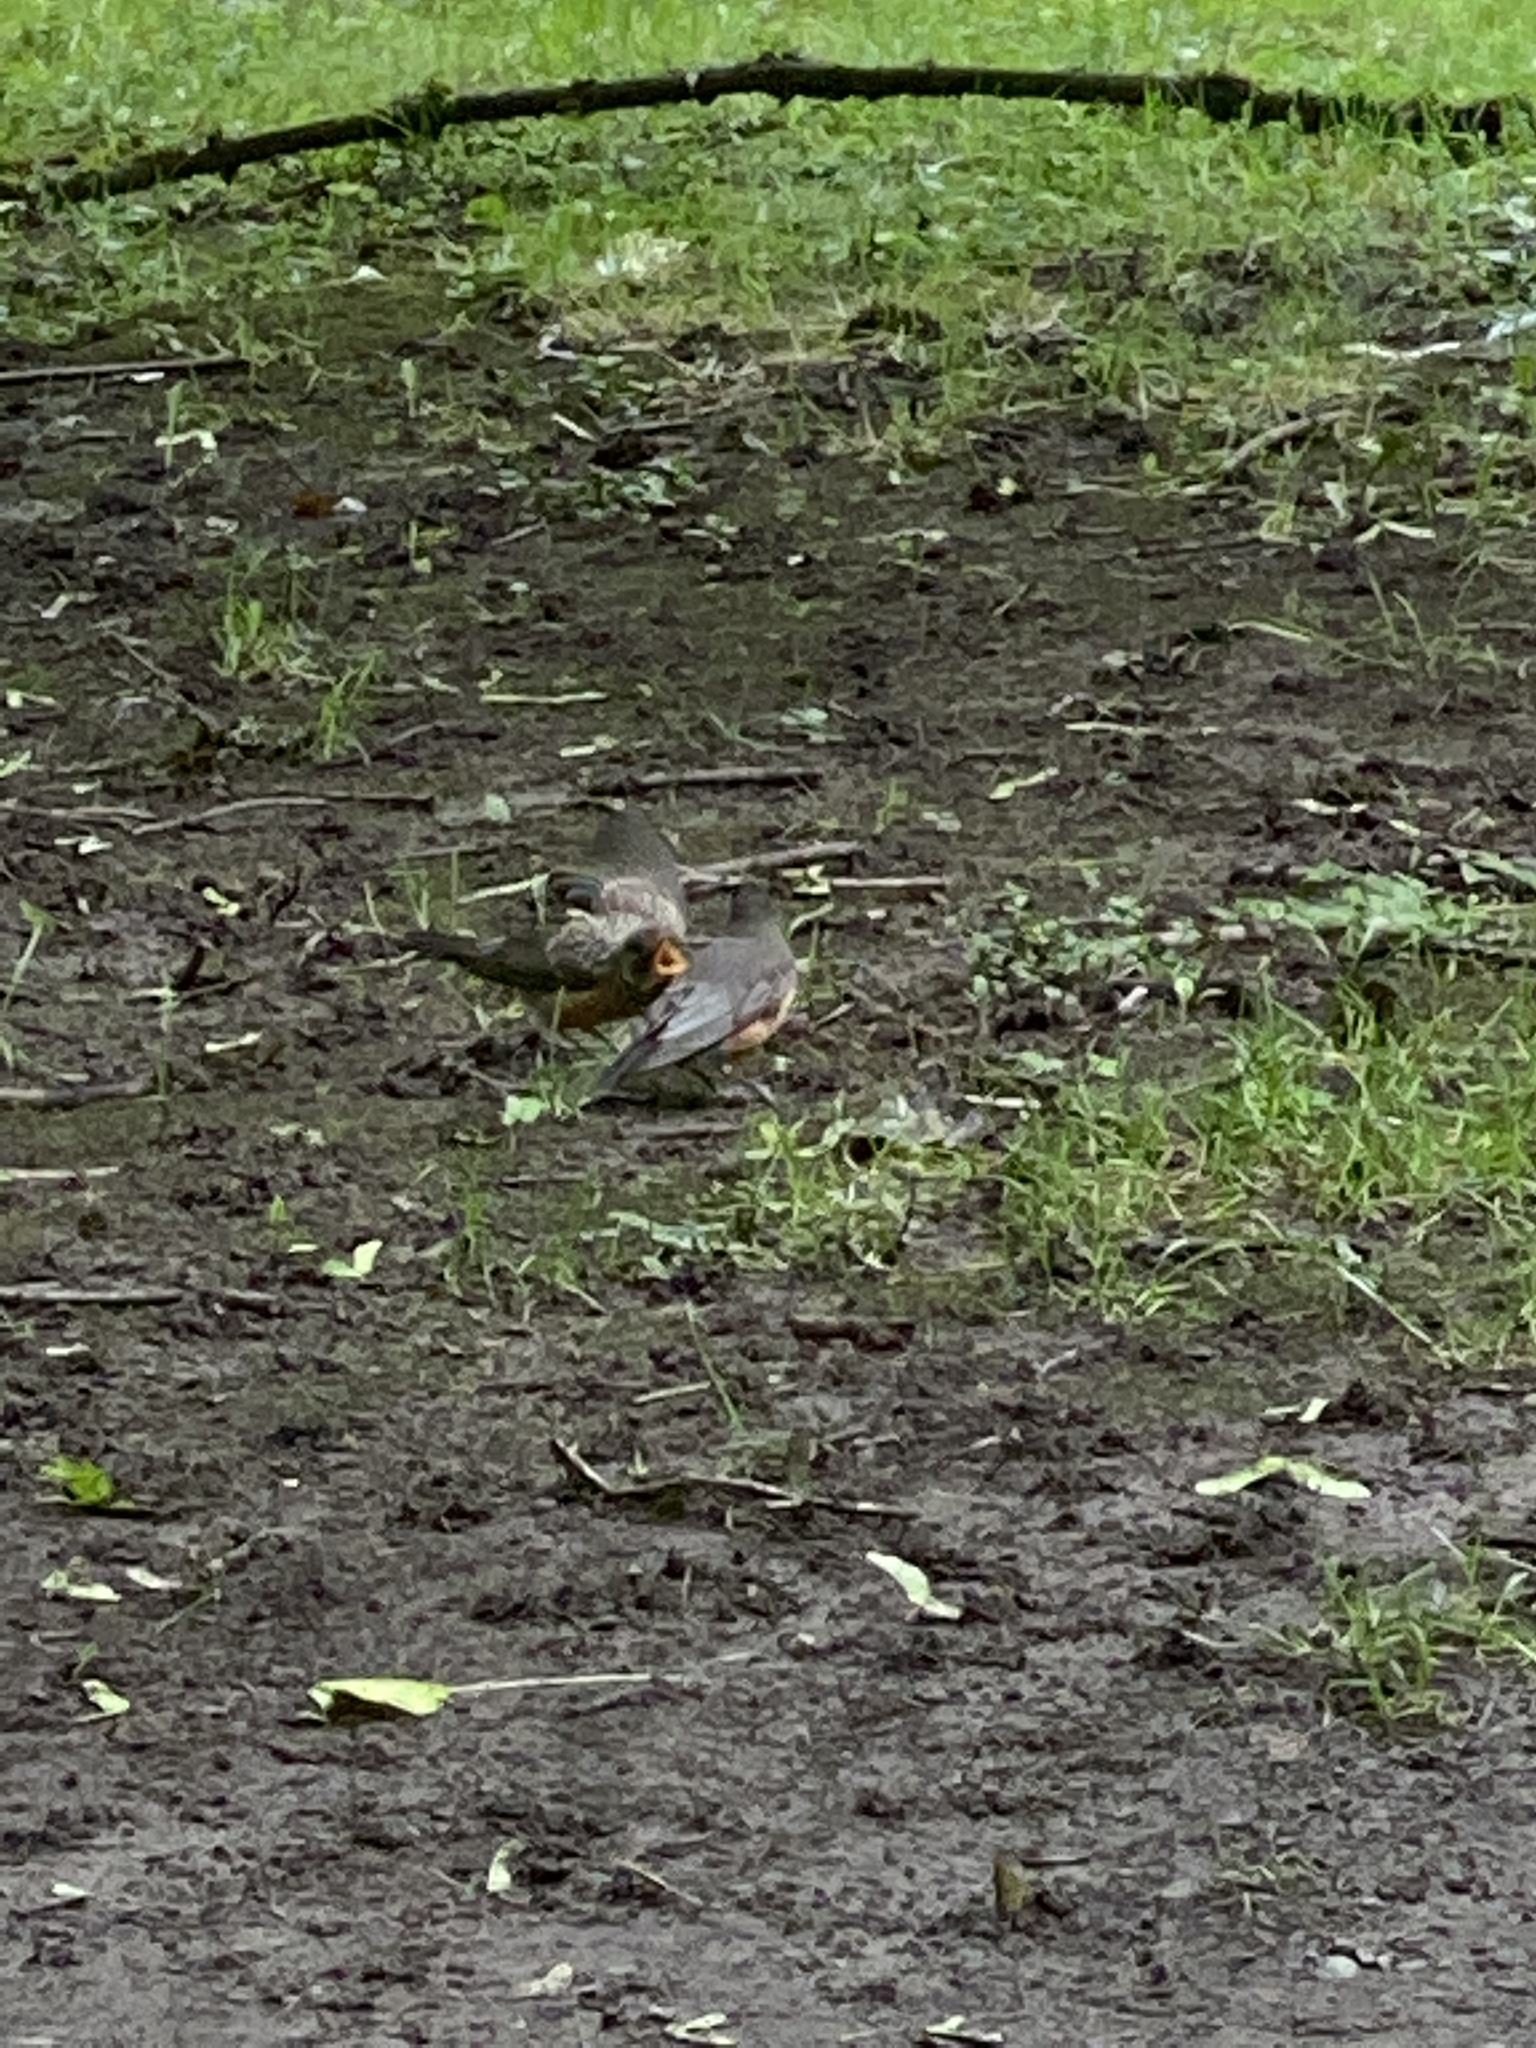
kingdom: Animalia
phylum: Chordata
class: Aves
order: Passeriformes
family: Turdidae
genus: Turdus
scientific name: Turdus migratorius
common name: American robin
